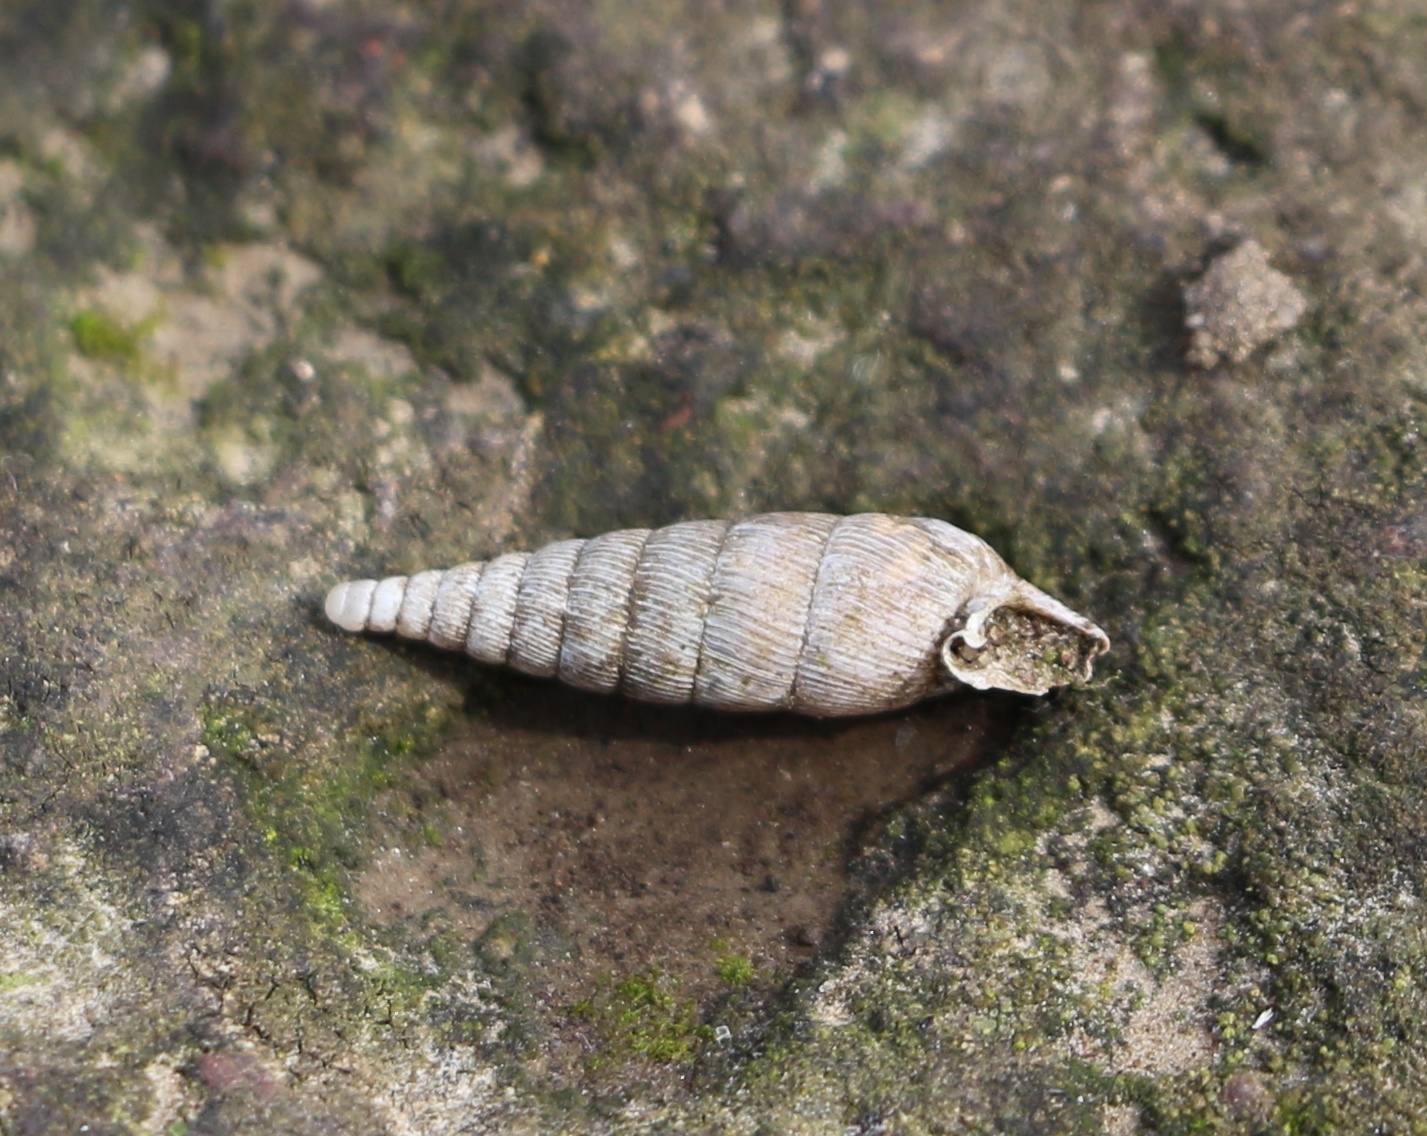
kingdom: Animalia
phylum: Mollusca
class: Gastropoda
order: Stylommatophora
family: Clausiliidae
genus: Scrobifera
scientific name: Scrobifera taurica
